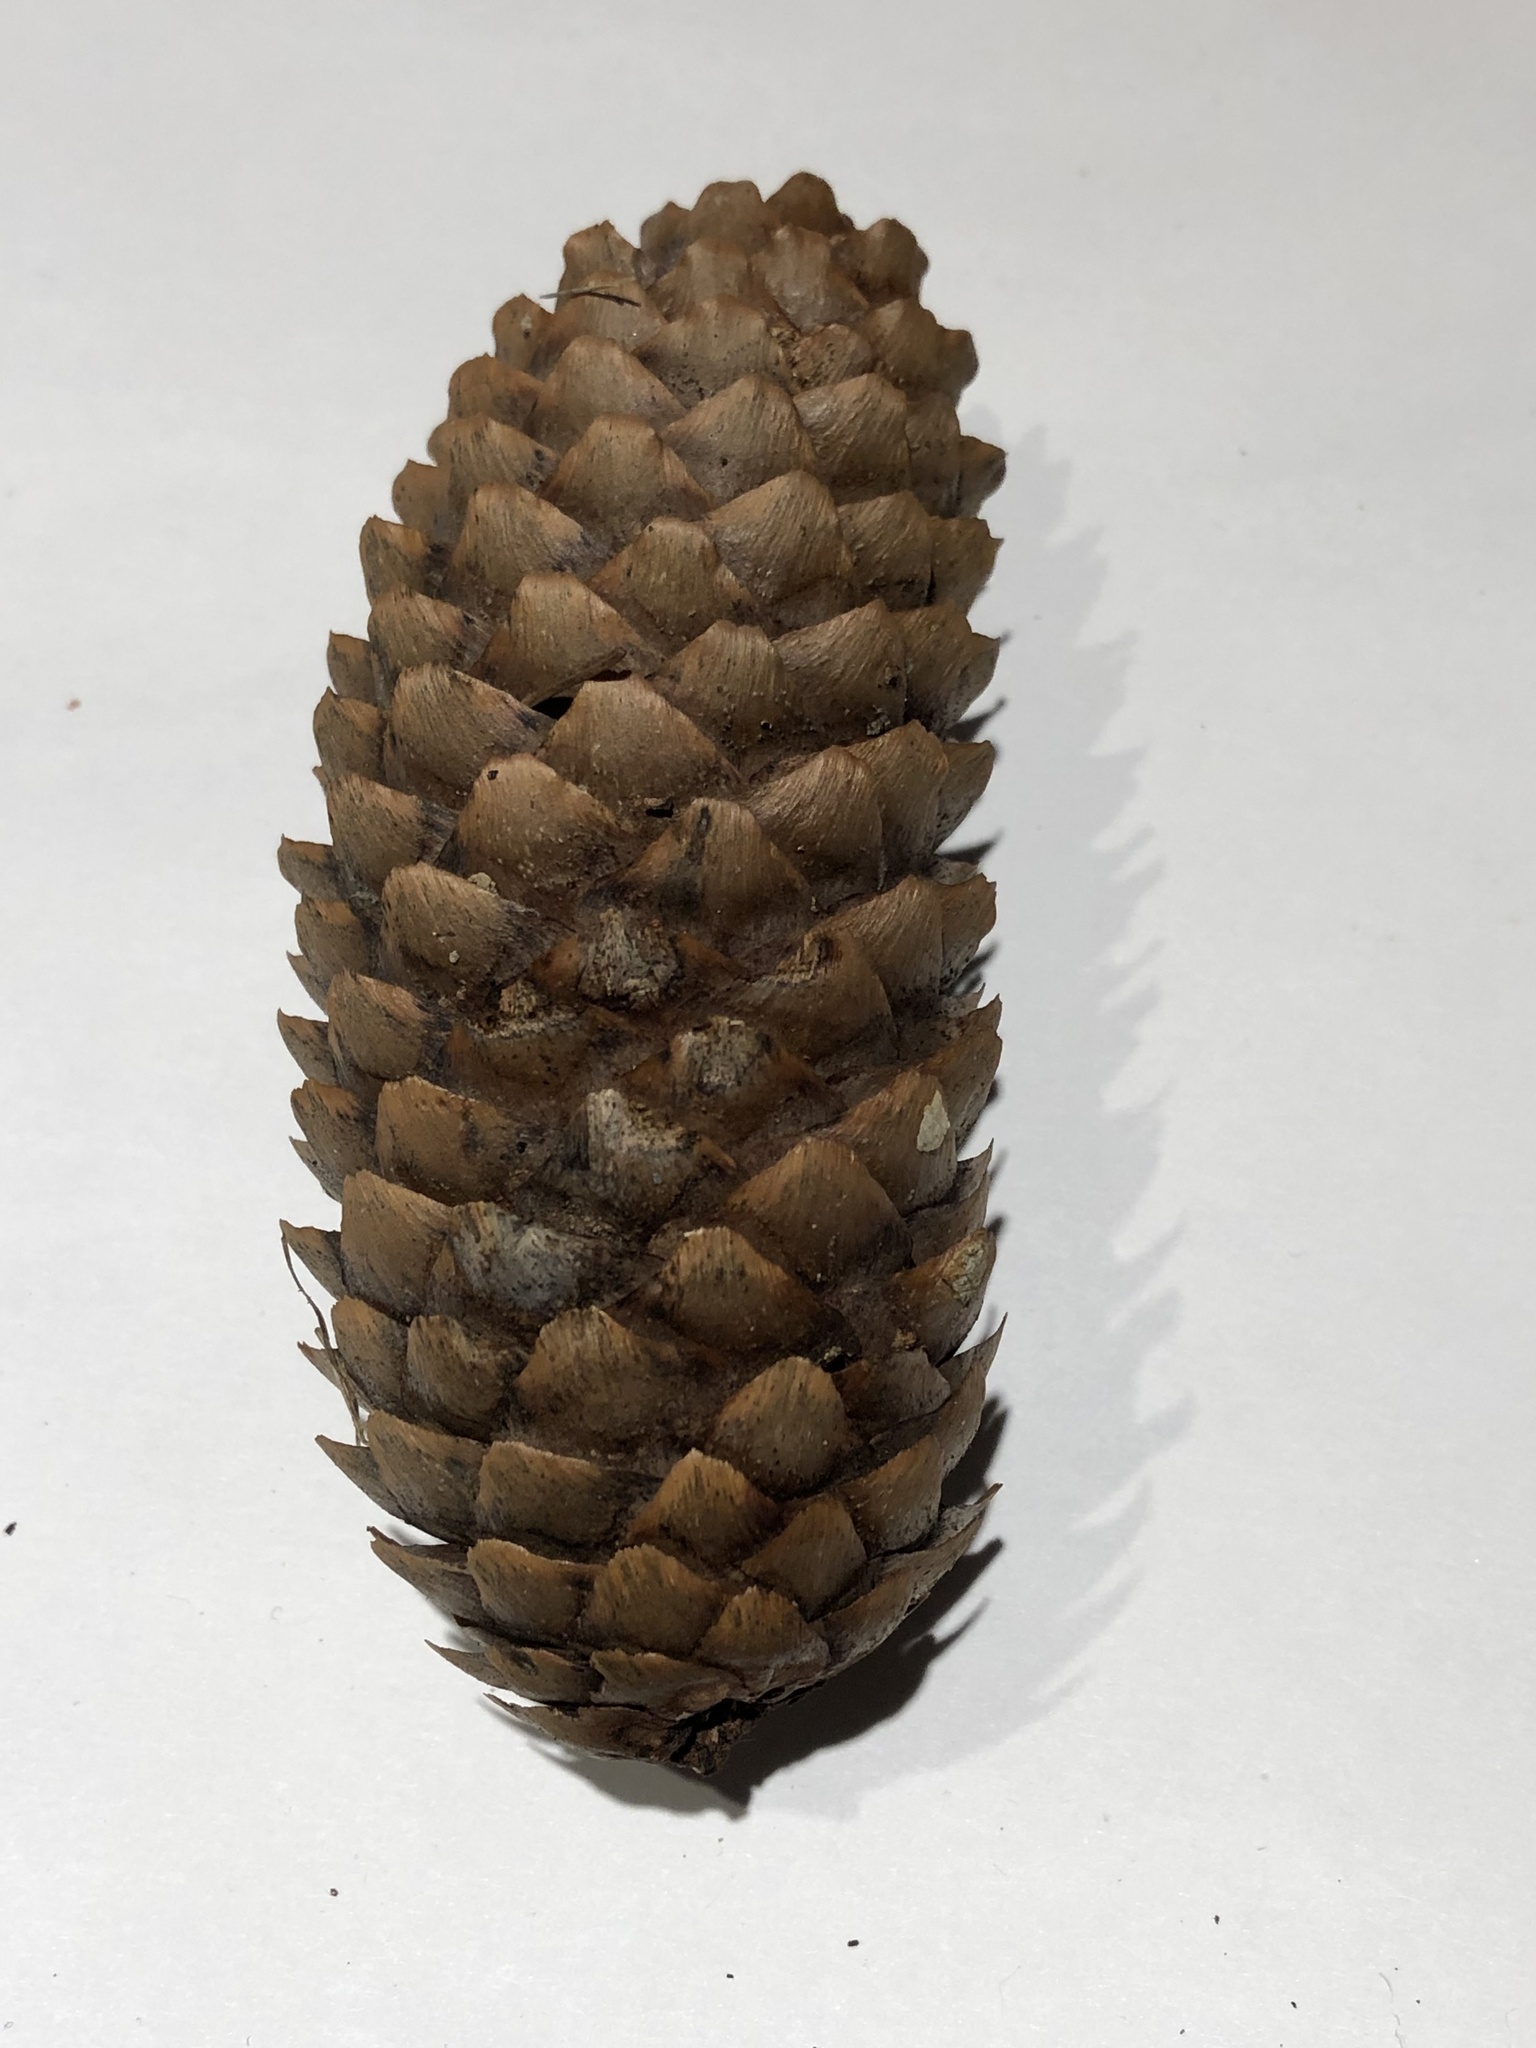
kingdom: Plantae
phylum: Tracheophyta
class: Pinopsida
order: Pinales
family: Pinaceae
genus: Picea
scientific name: Picea abies
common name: Norway spruce
